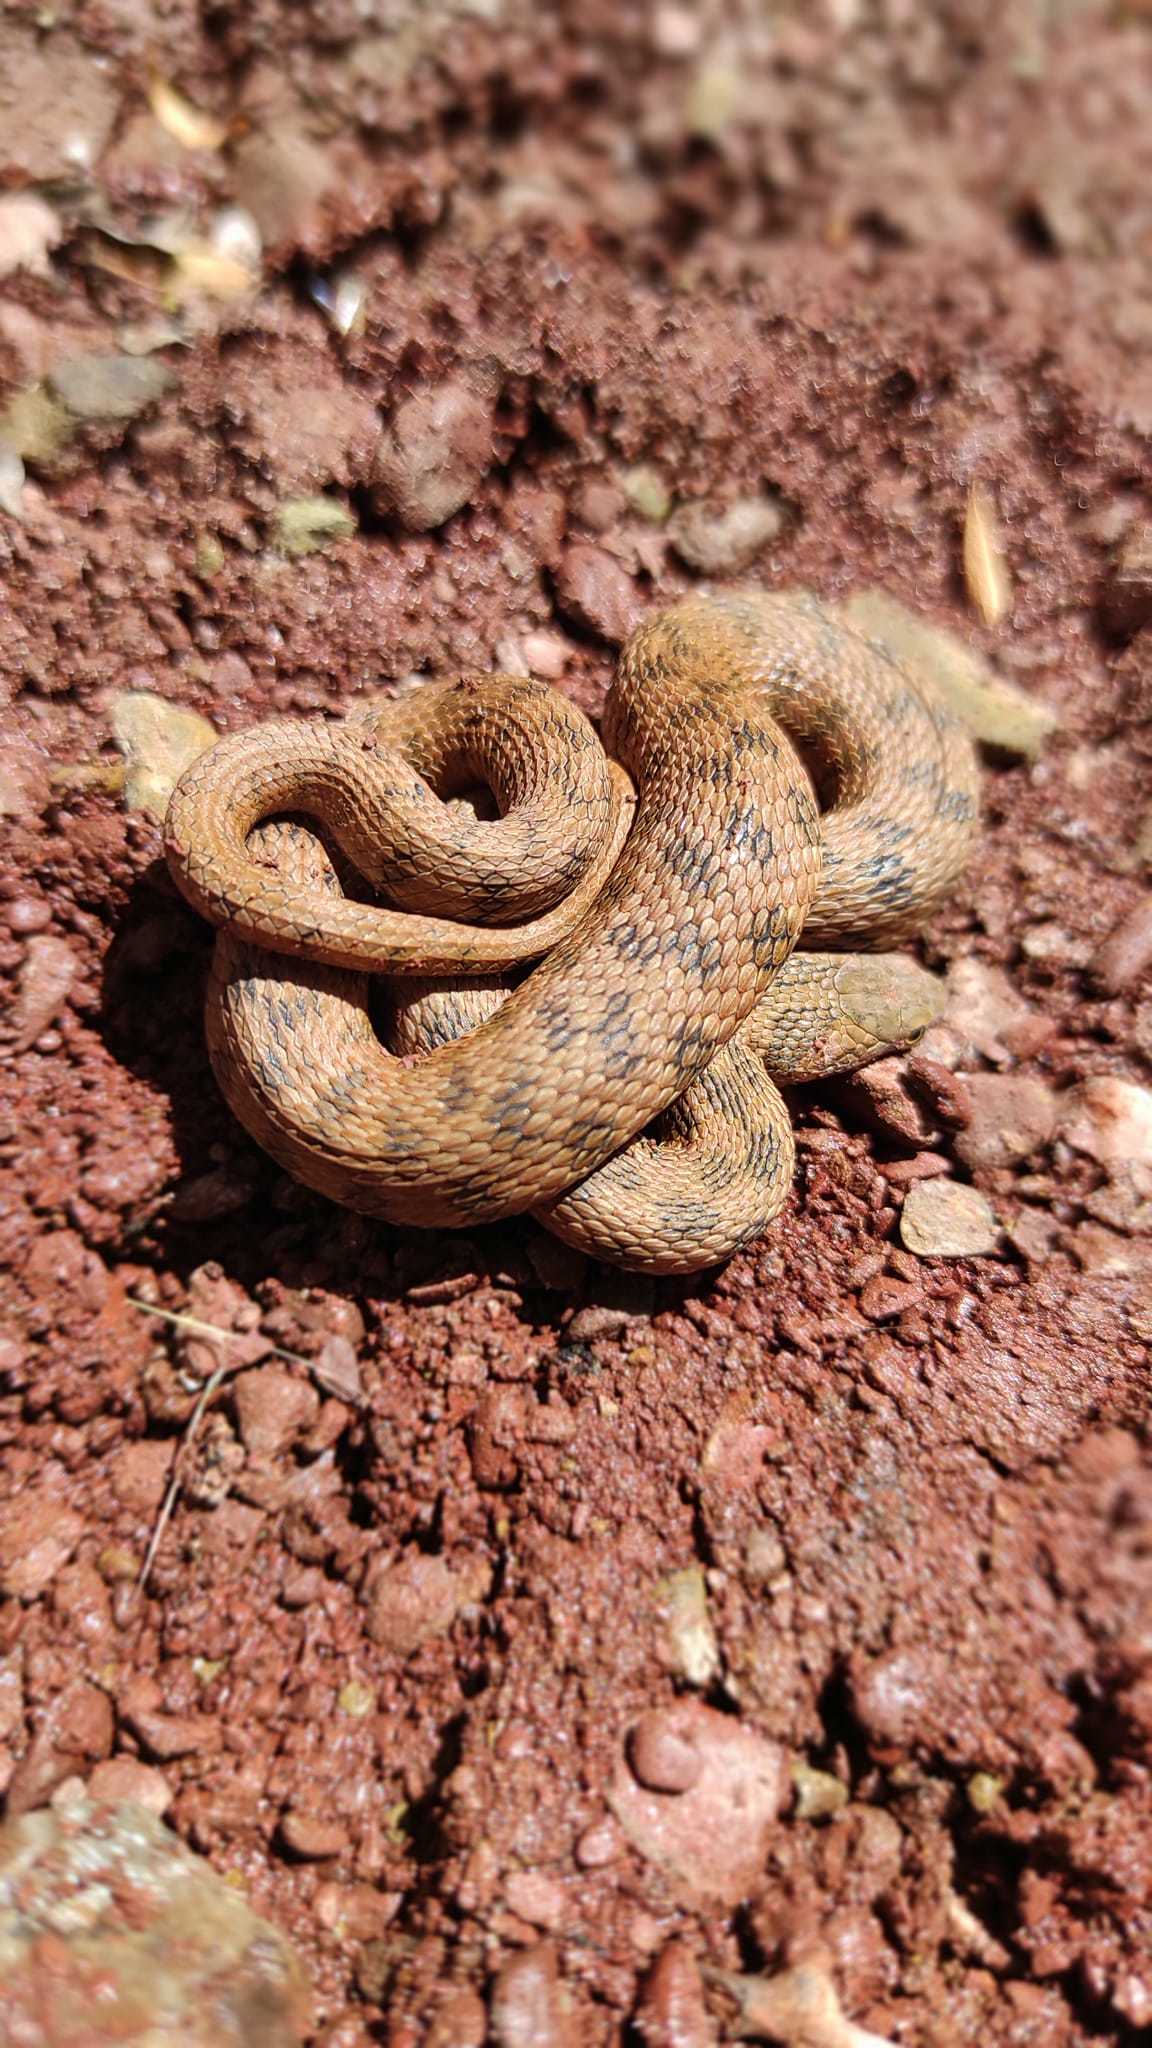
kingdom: Animalia
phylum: Chordata
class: Squamata
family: Colubridae
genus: Natrix
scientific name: Natrix maura
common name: Viperine water snake
